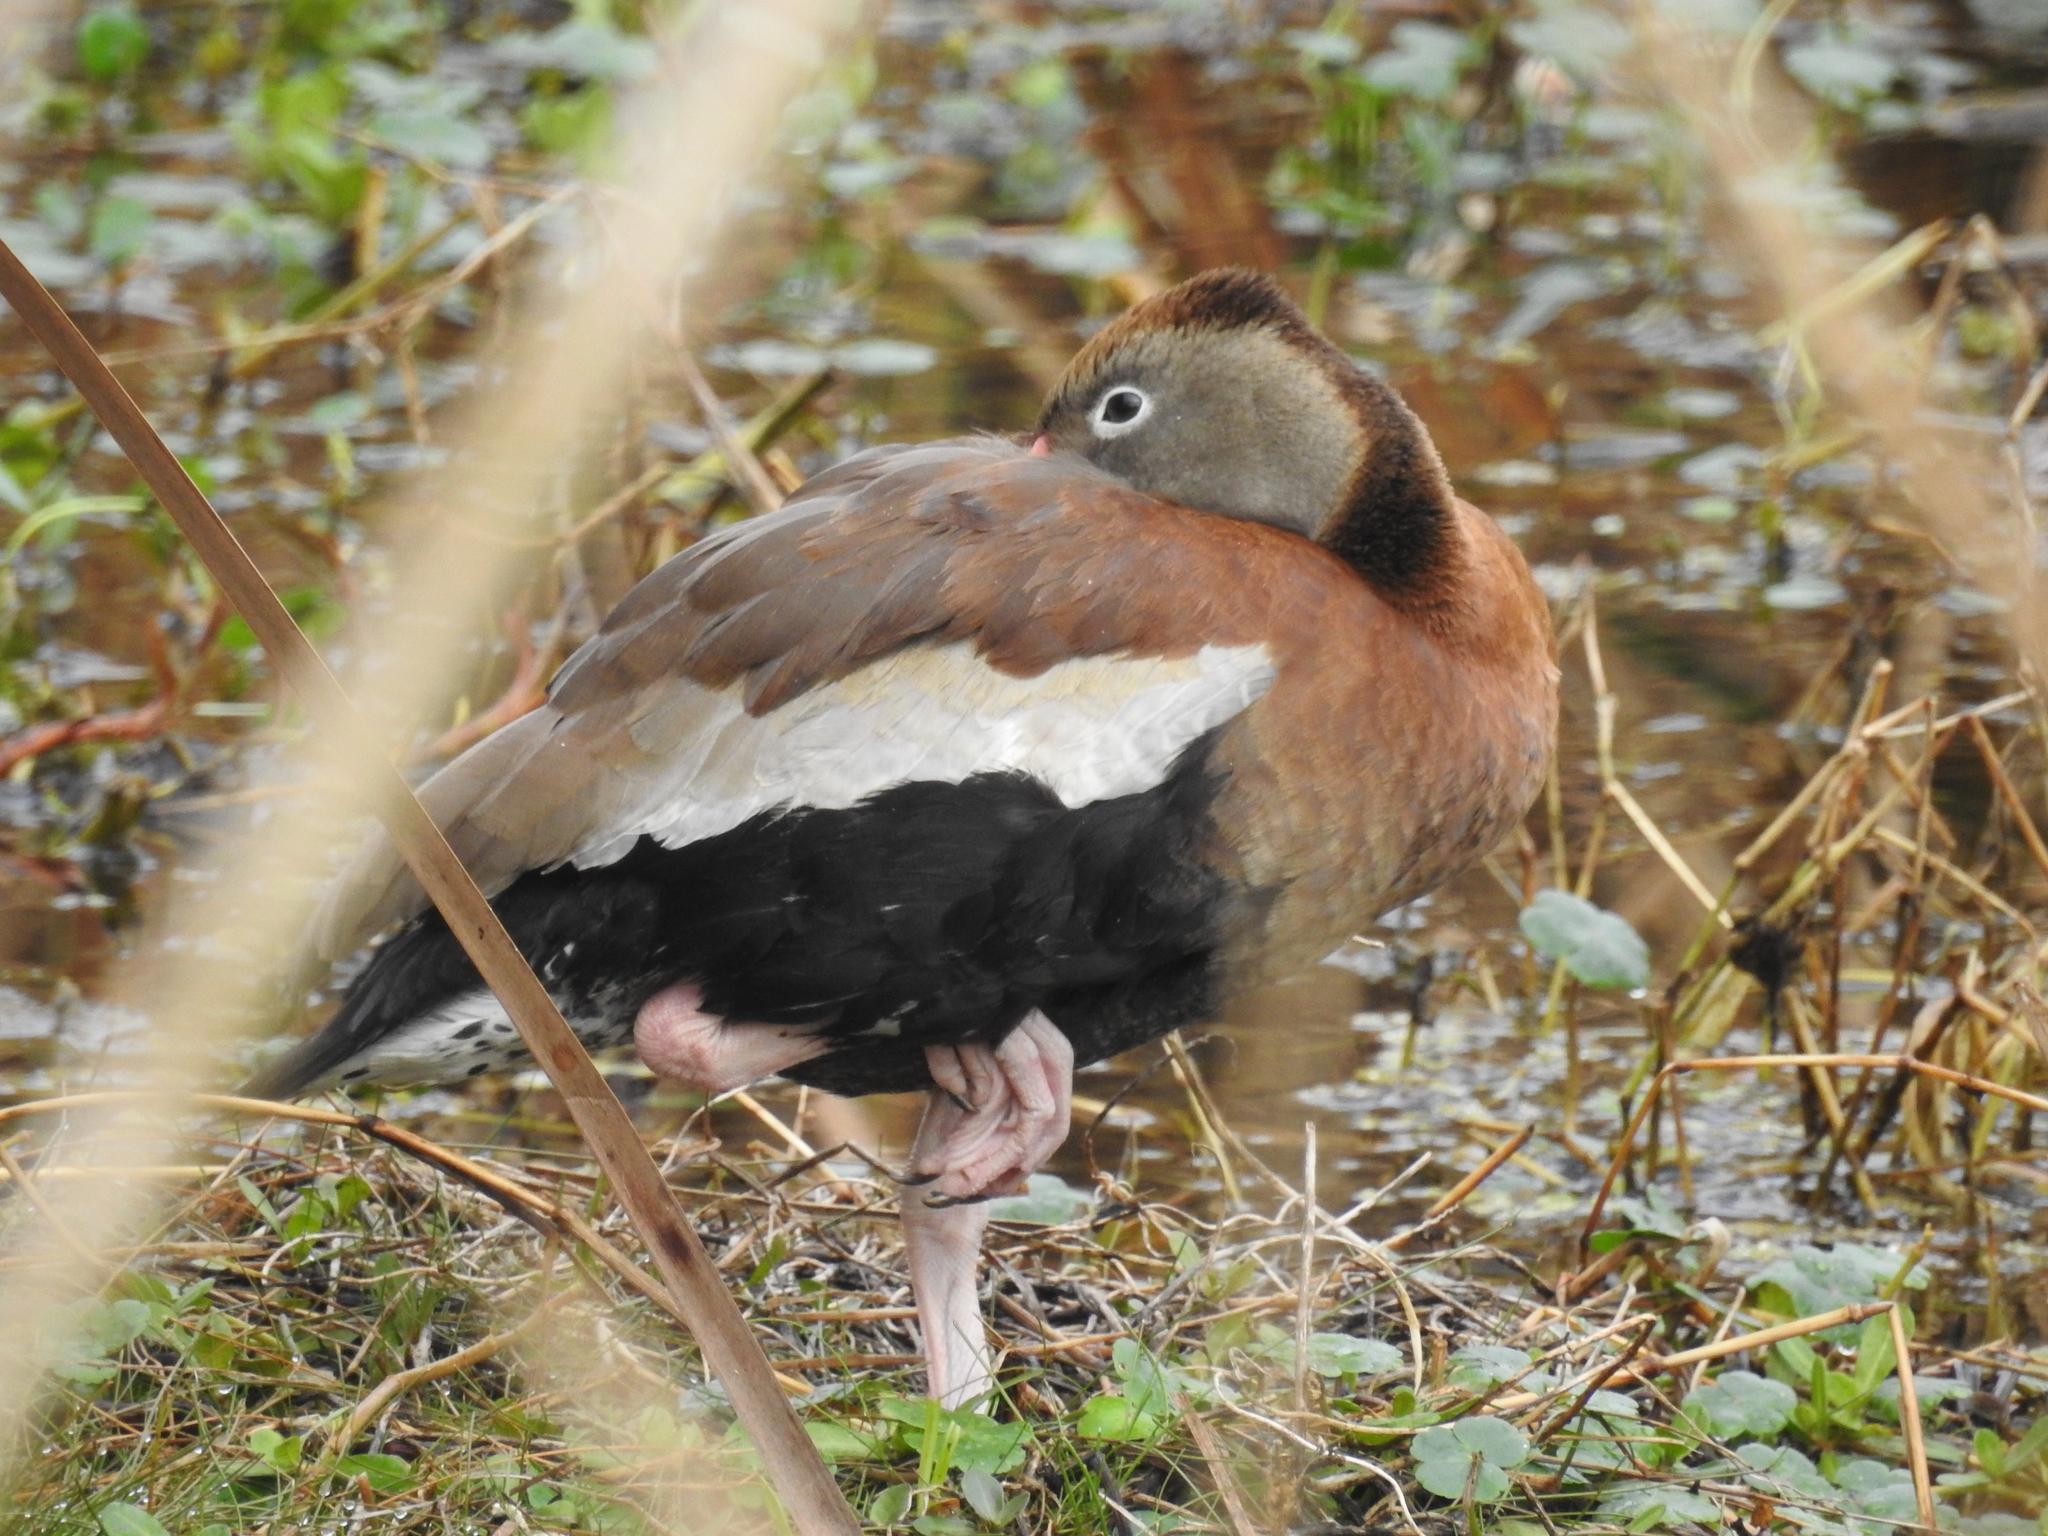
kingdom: Animalia
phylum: Chordata
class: Aves
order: Anseriformes
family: Anatidae
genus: Dendrocygna
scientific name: Dendrocygna autumnalis
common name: Black-bellied whistling duck
